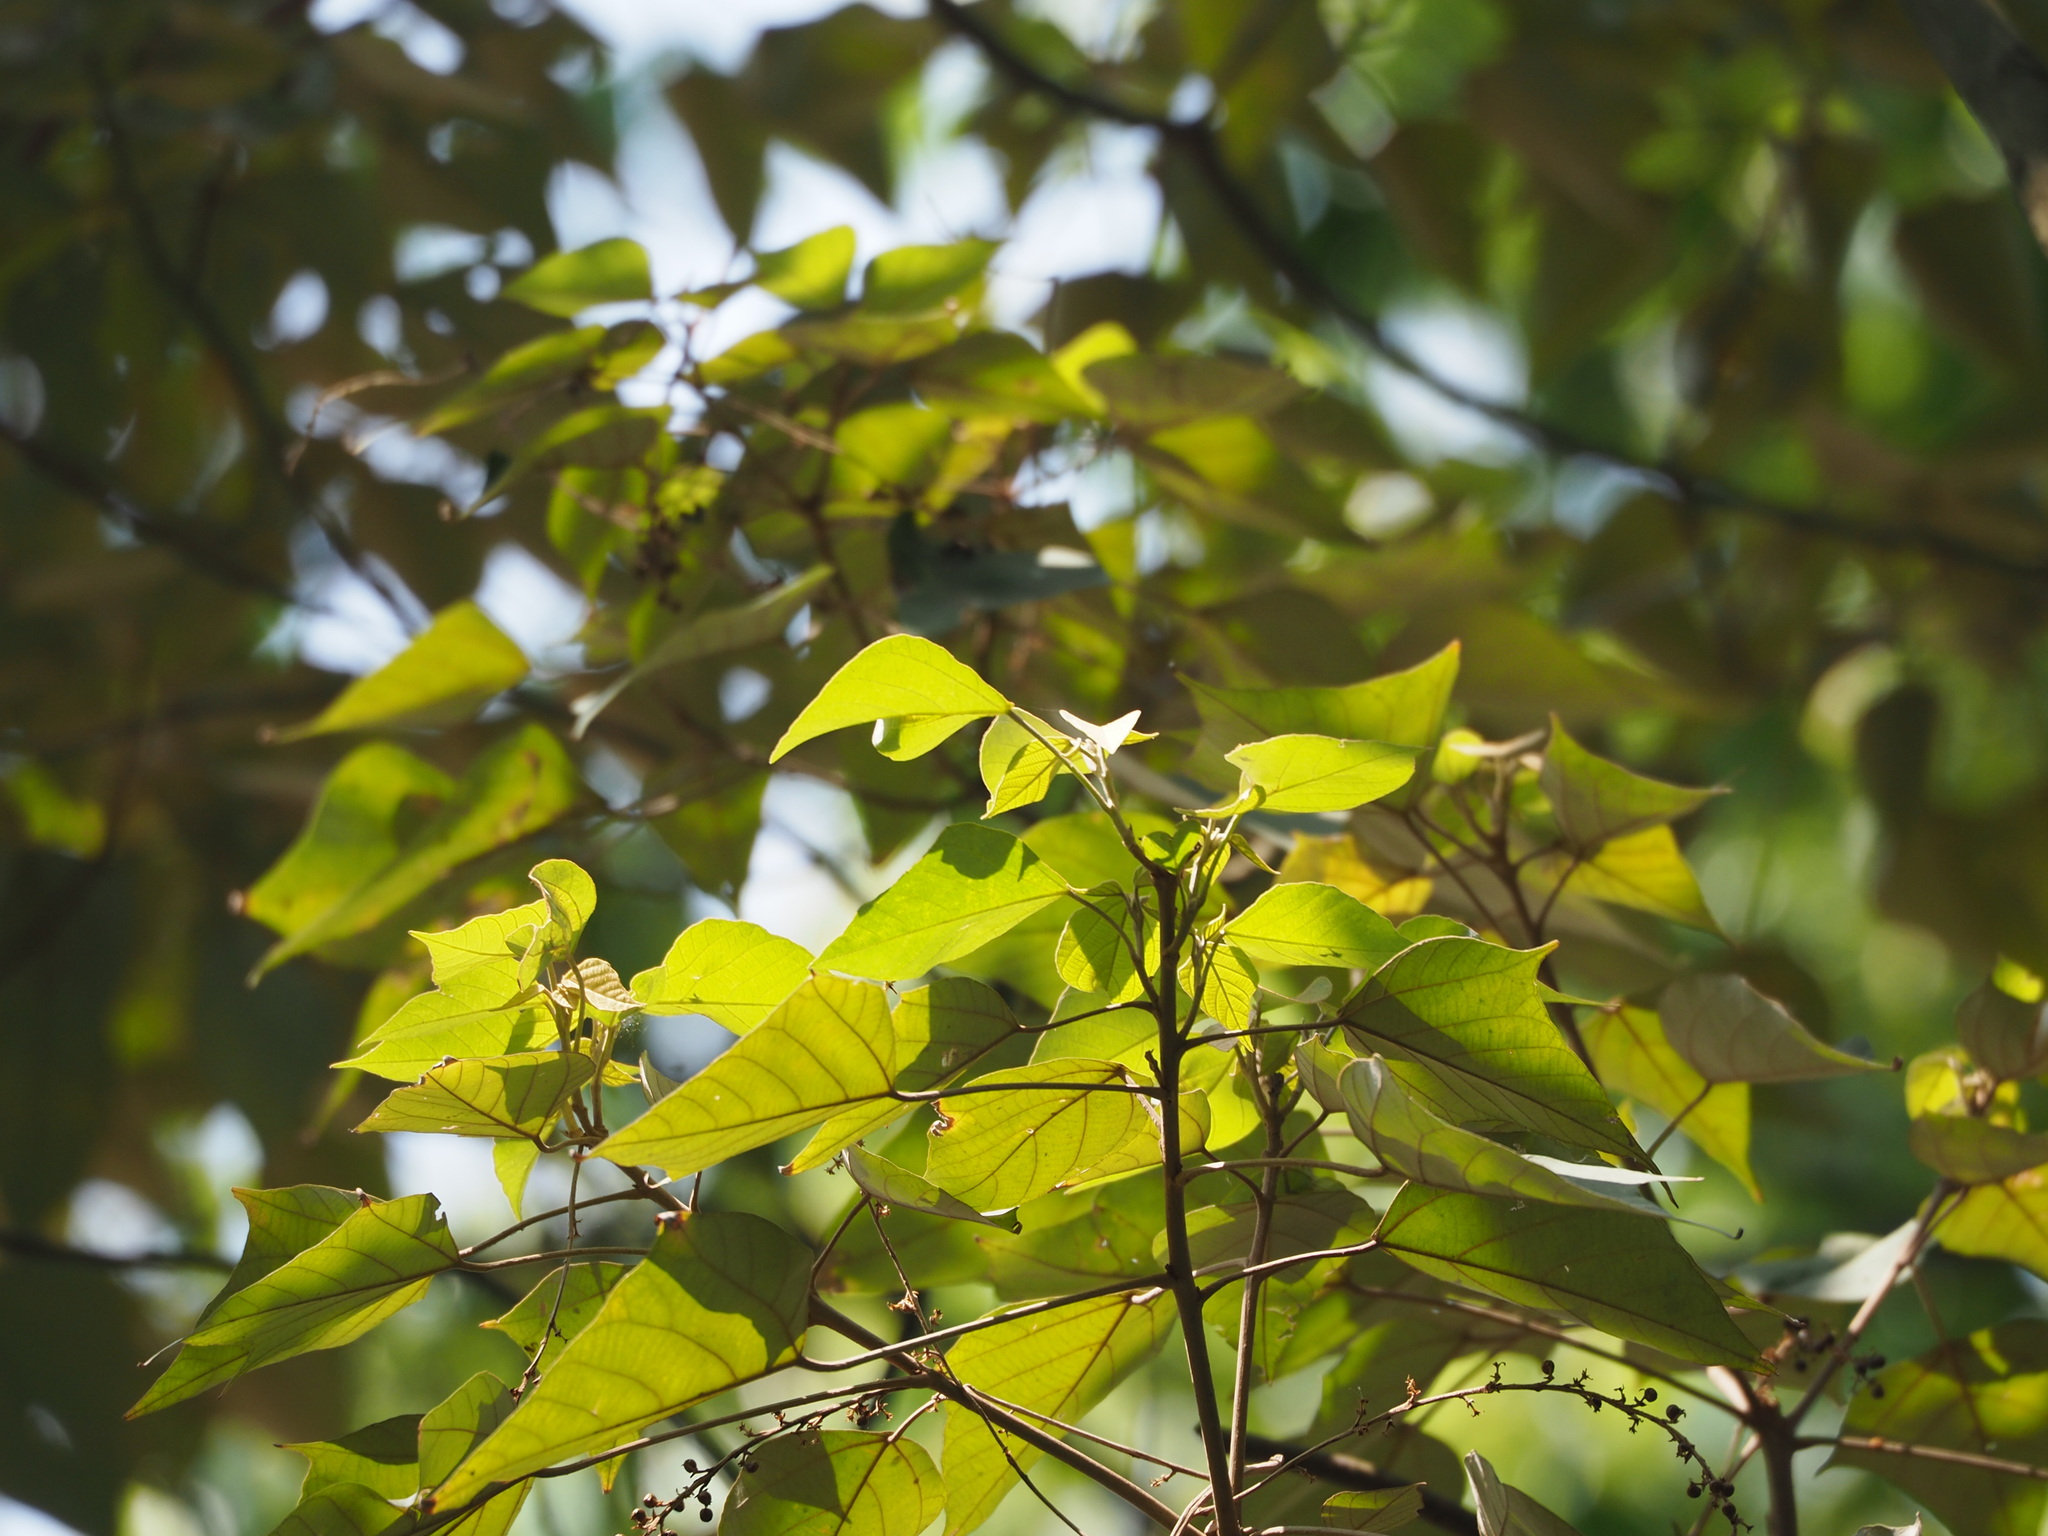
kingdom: Plantae
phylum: Tracheophyta
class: Magnoliopsida
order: Malpighiales
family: Euphorbiaceae
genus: Mallotus
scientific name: Mallotus paniculatus
